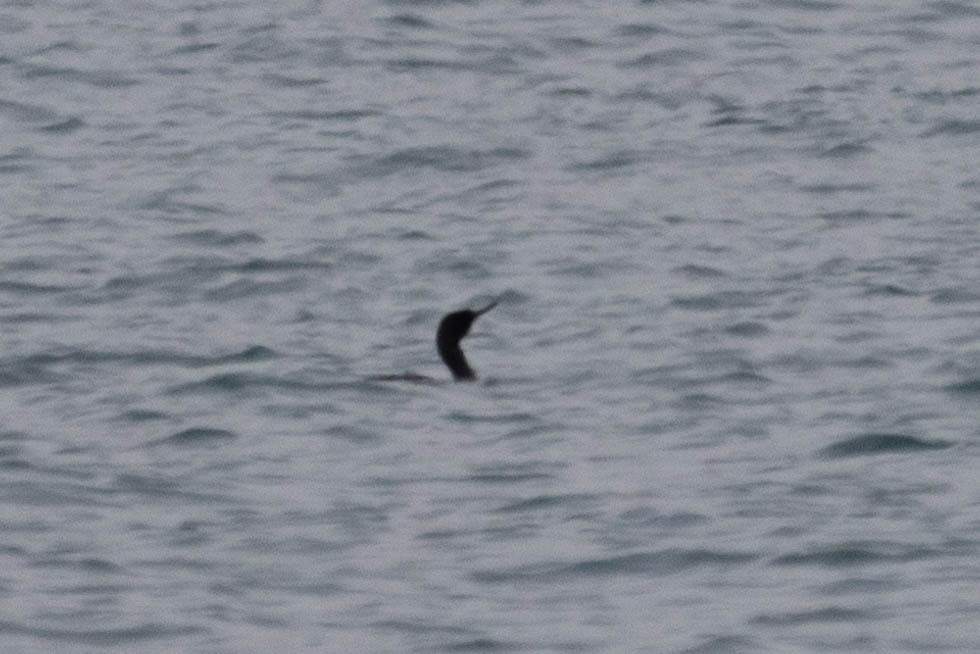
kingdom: Animalia
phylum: Chordata
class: Aves
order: Suliformes
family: Phalacrocoracidae
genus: Phalacrocorax
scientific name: Phalacrocorax pelagicus
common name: Pelagic cormorant
